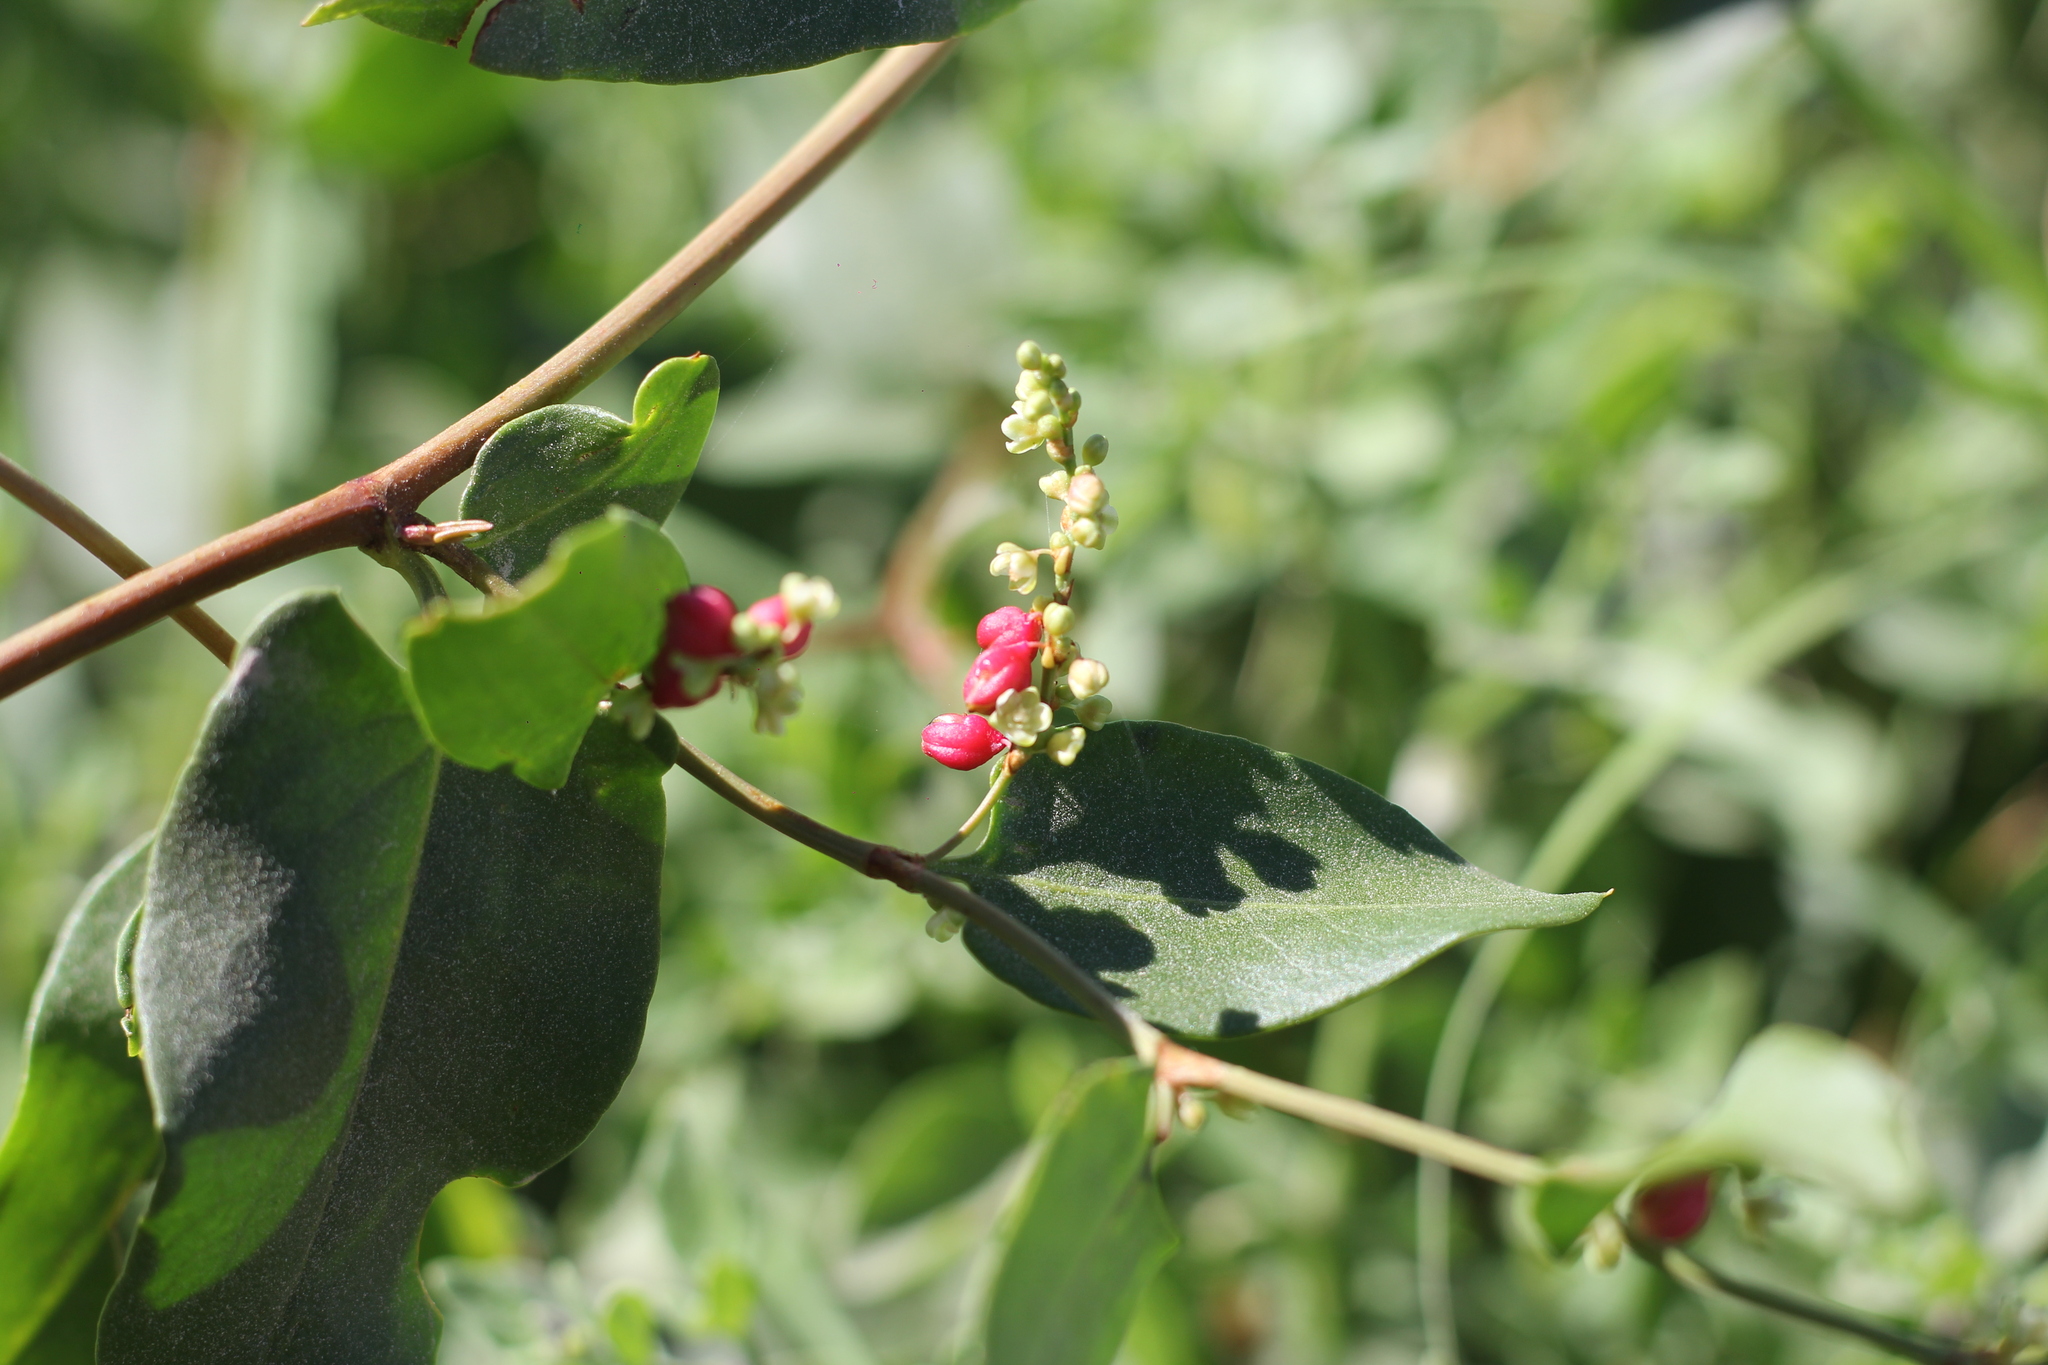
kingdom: Plantae
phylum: Tracheophyta
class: Magnoliopsida
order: Caryophyllales
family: Polygonaceae
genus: Muehlenbeckia
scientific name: Muehlenbeckia sagittifolia
